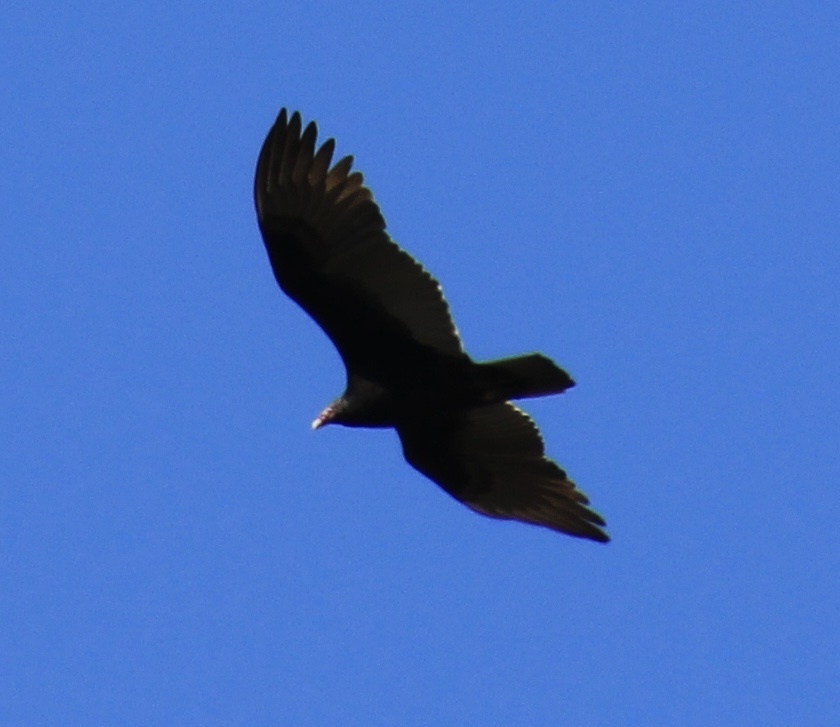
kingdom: Animalia
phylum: Chordata
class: Aves
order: Accipitriformes
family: Cathartidae
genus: Cathartes
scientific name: Cathartes aura
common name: Turkey vulture
